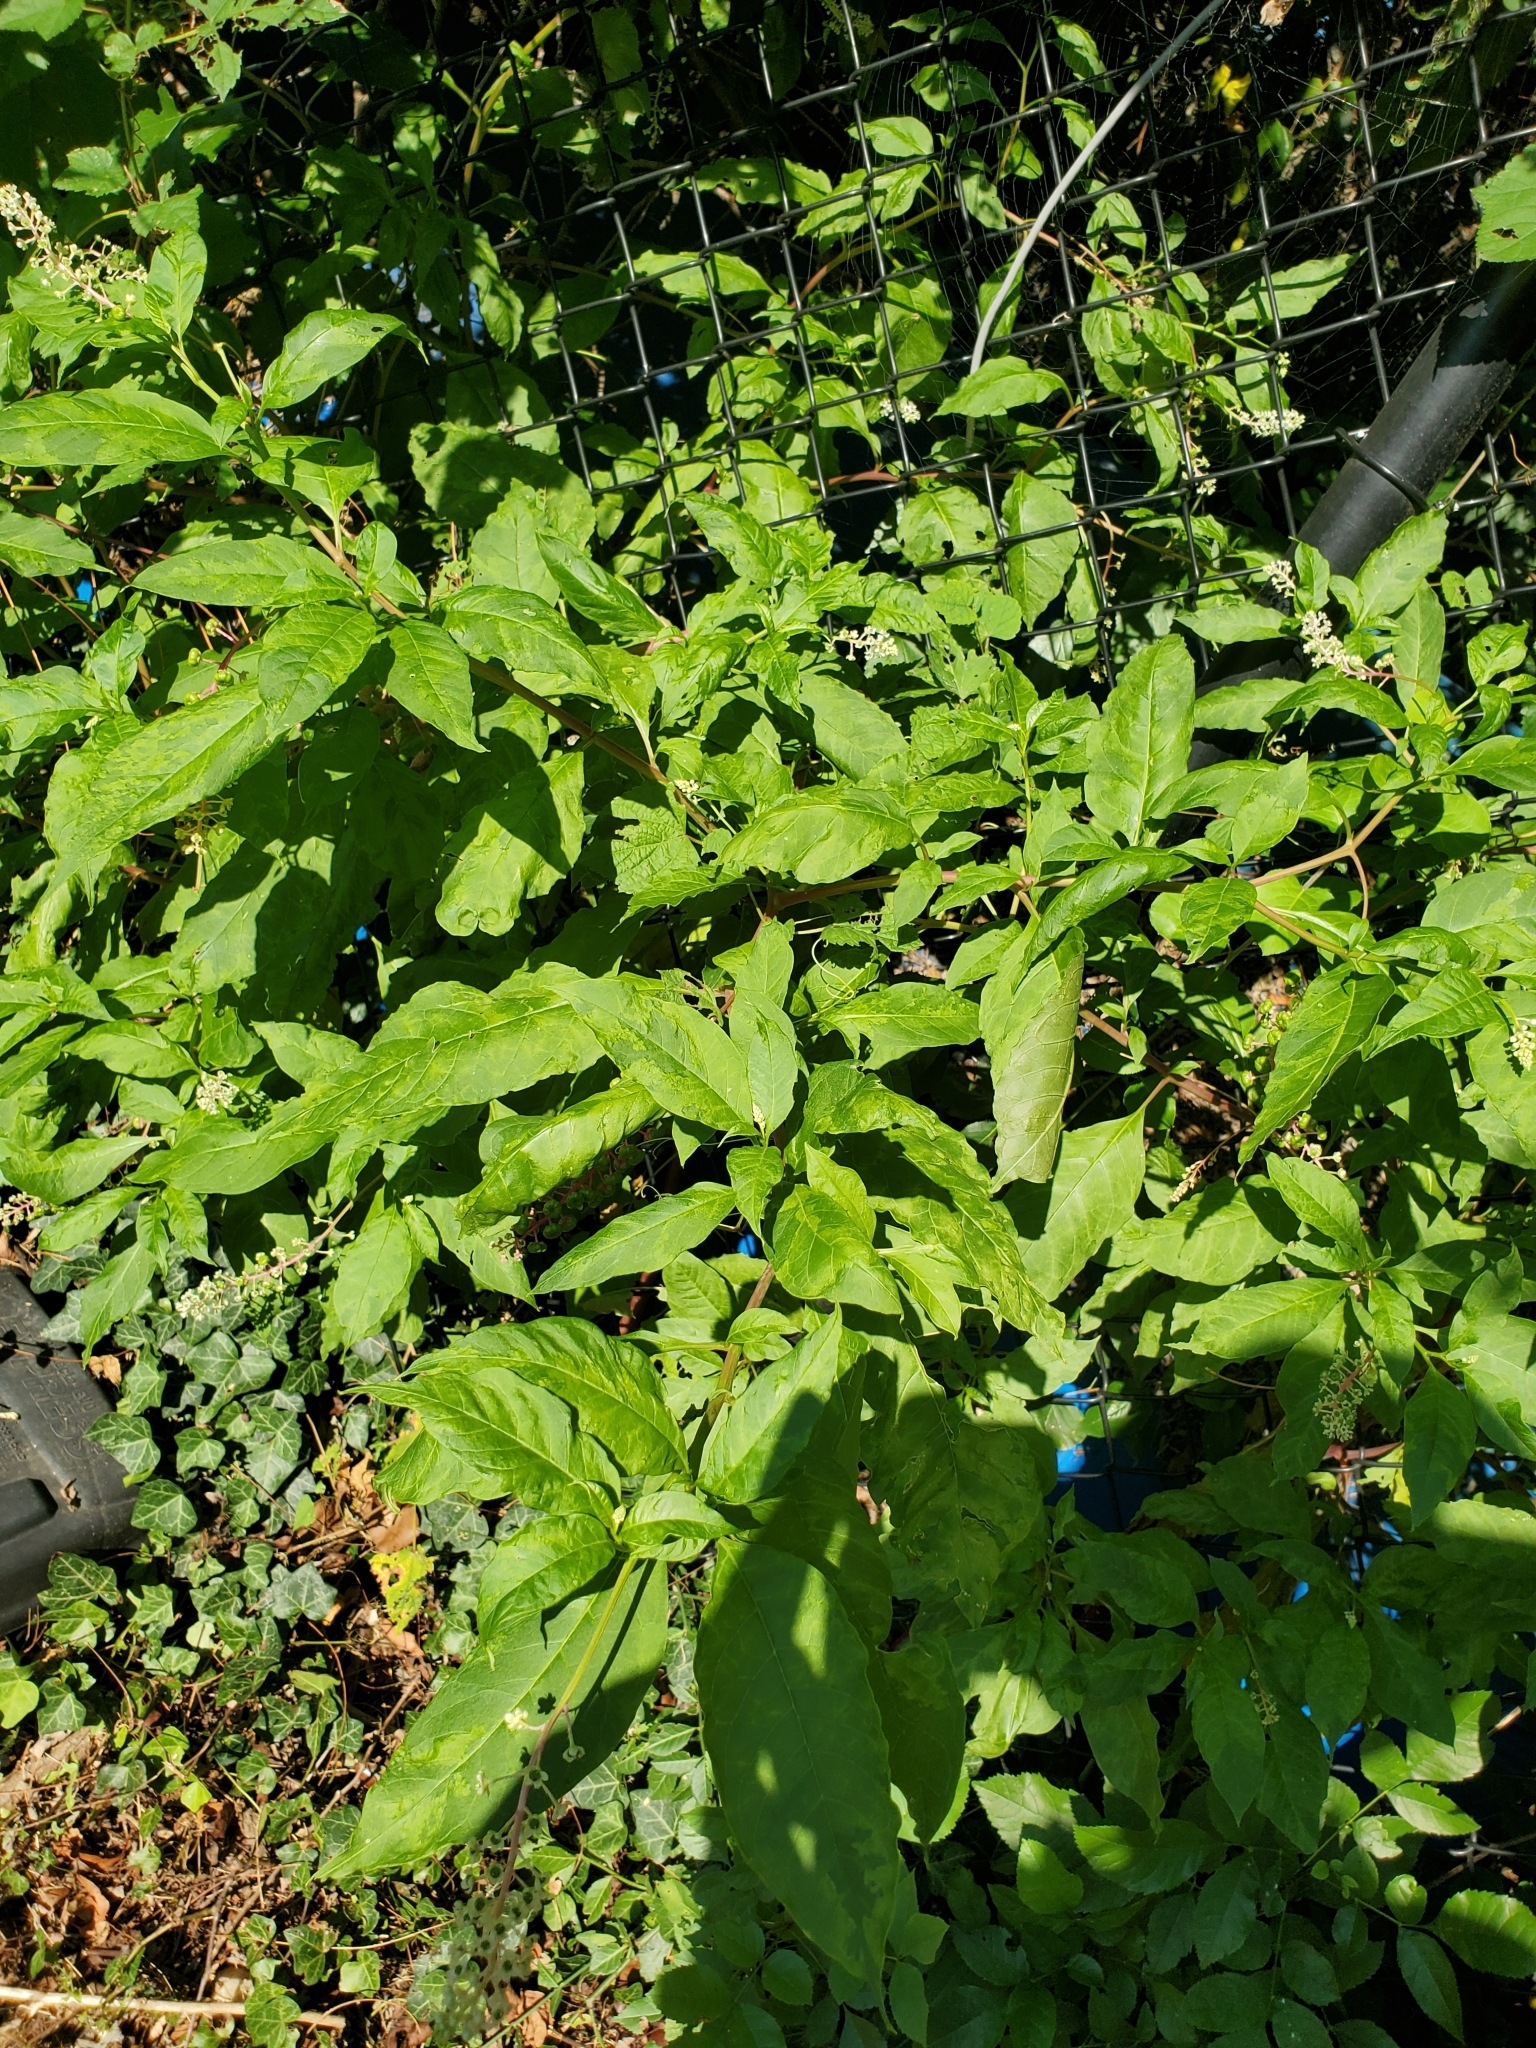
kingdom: Plantae
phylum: Tracheophyta
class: Magnoliopsida
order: Caryophyllales
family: Phytolaccaceae
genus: Phytolacca
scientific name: Phytolacca americana
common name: American pokeweed
